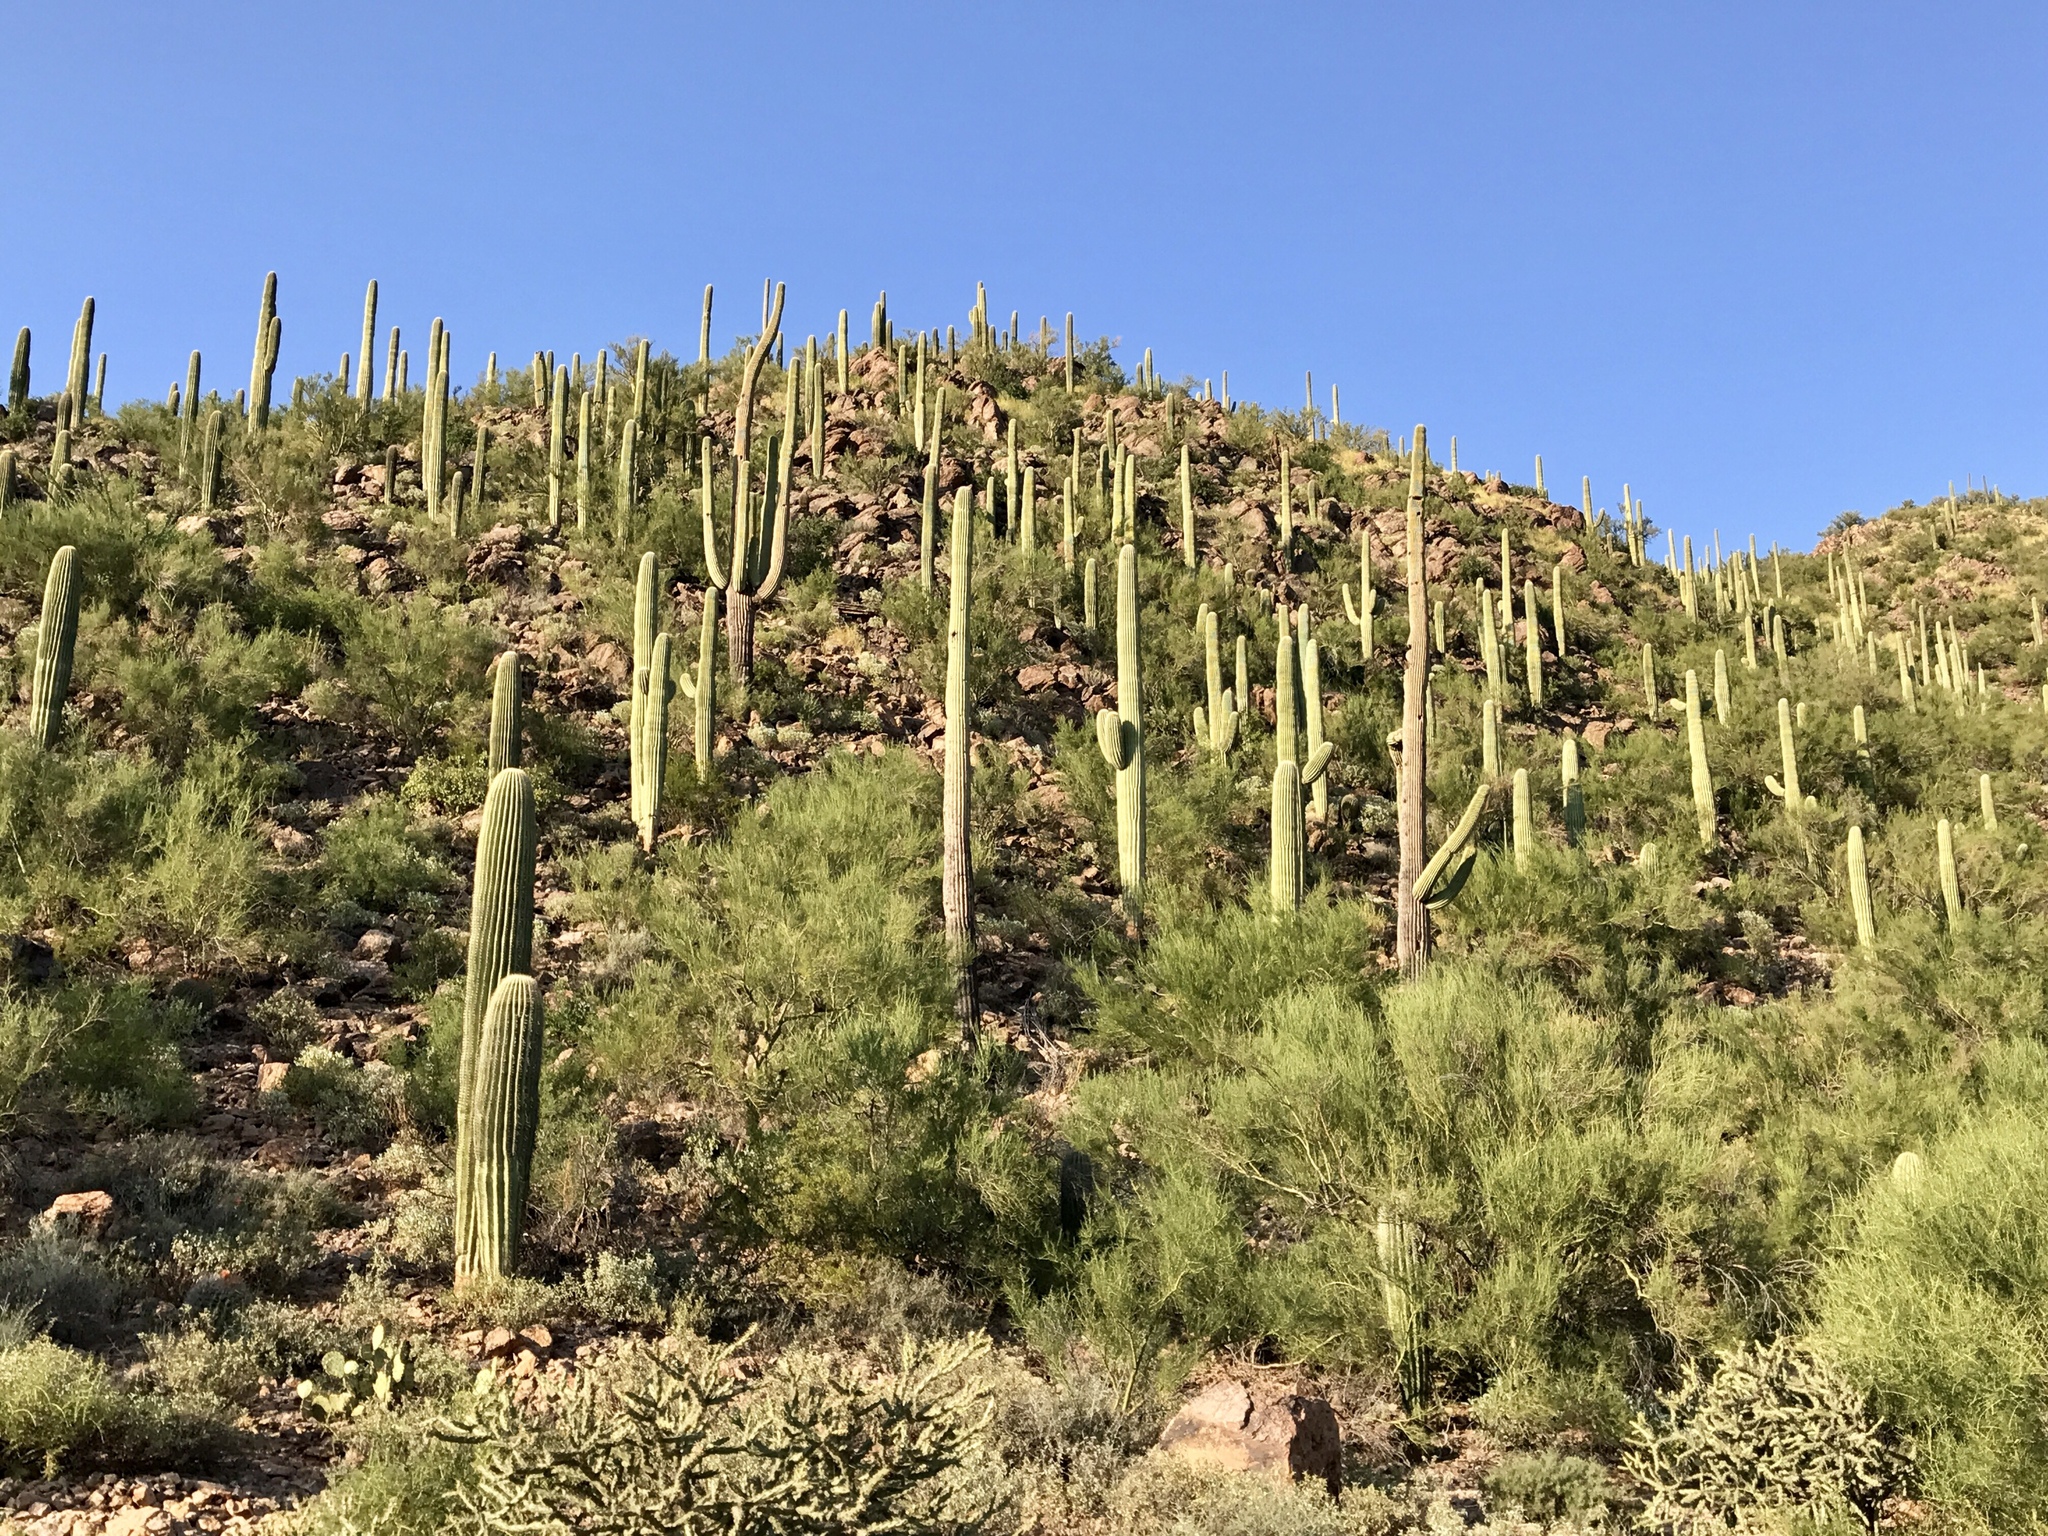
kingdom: Plantae
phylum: Tracheophyta
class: Magnoliopsida
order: Caryophyllales
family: Cactaceae
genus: Carnegiea
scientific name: Carnegiea gigantea
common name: Saguaro
